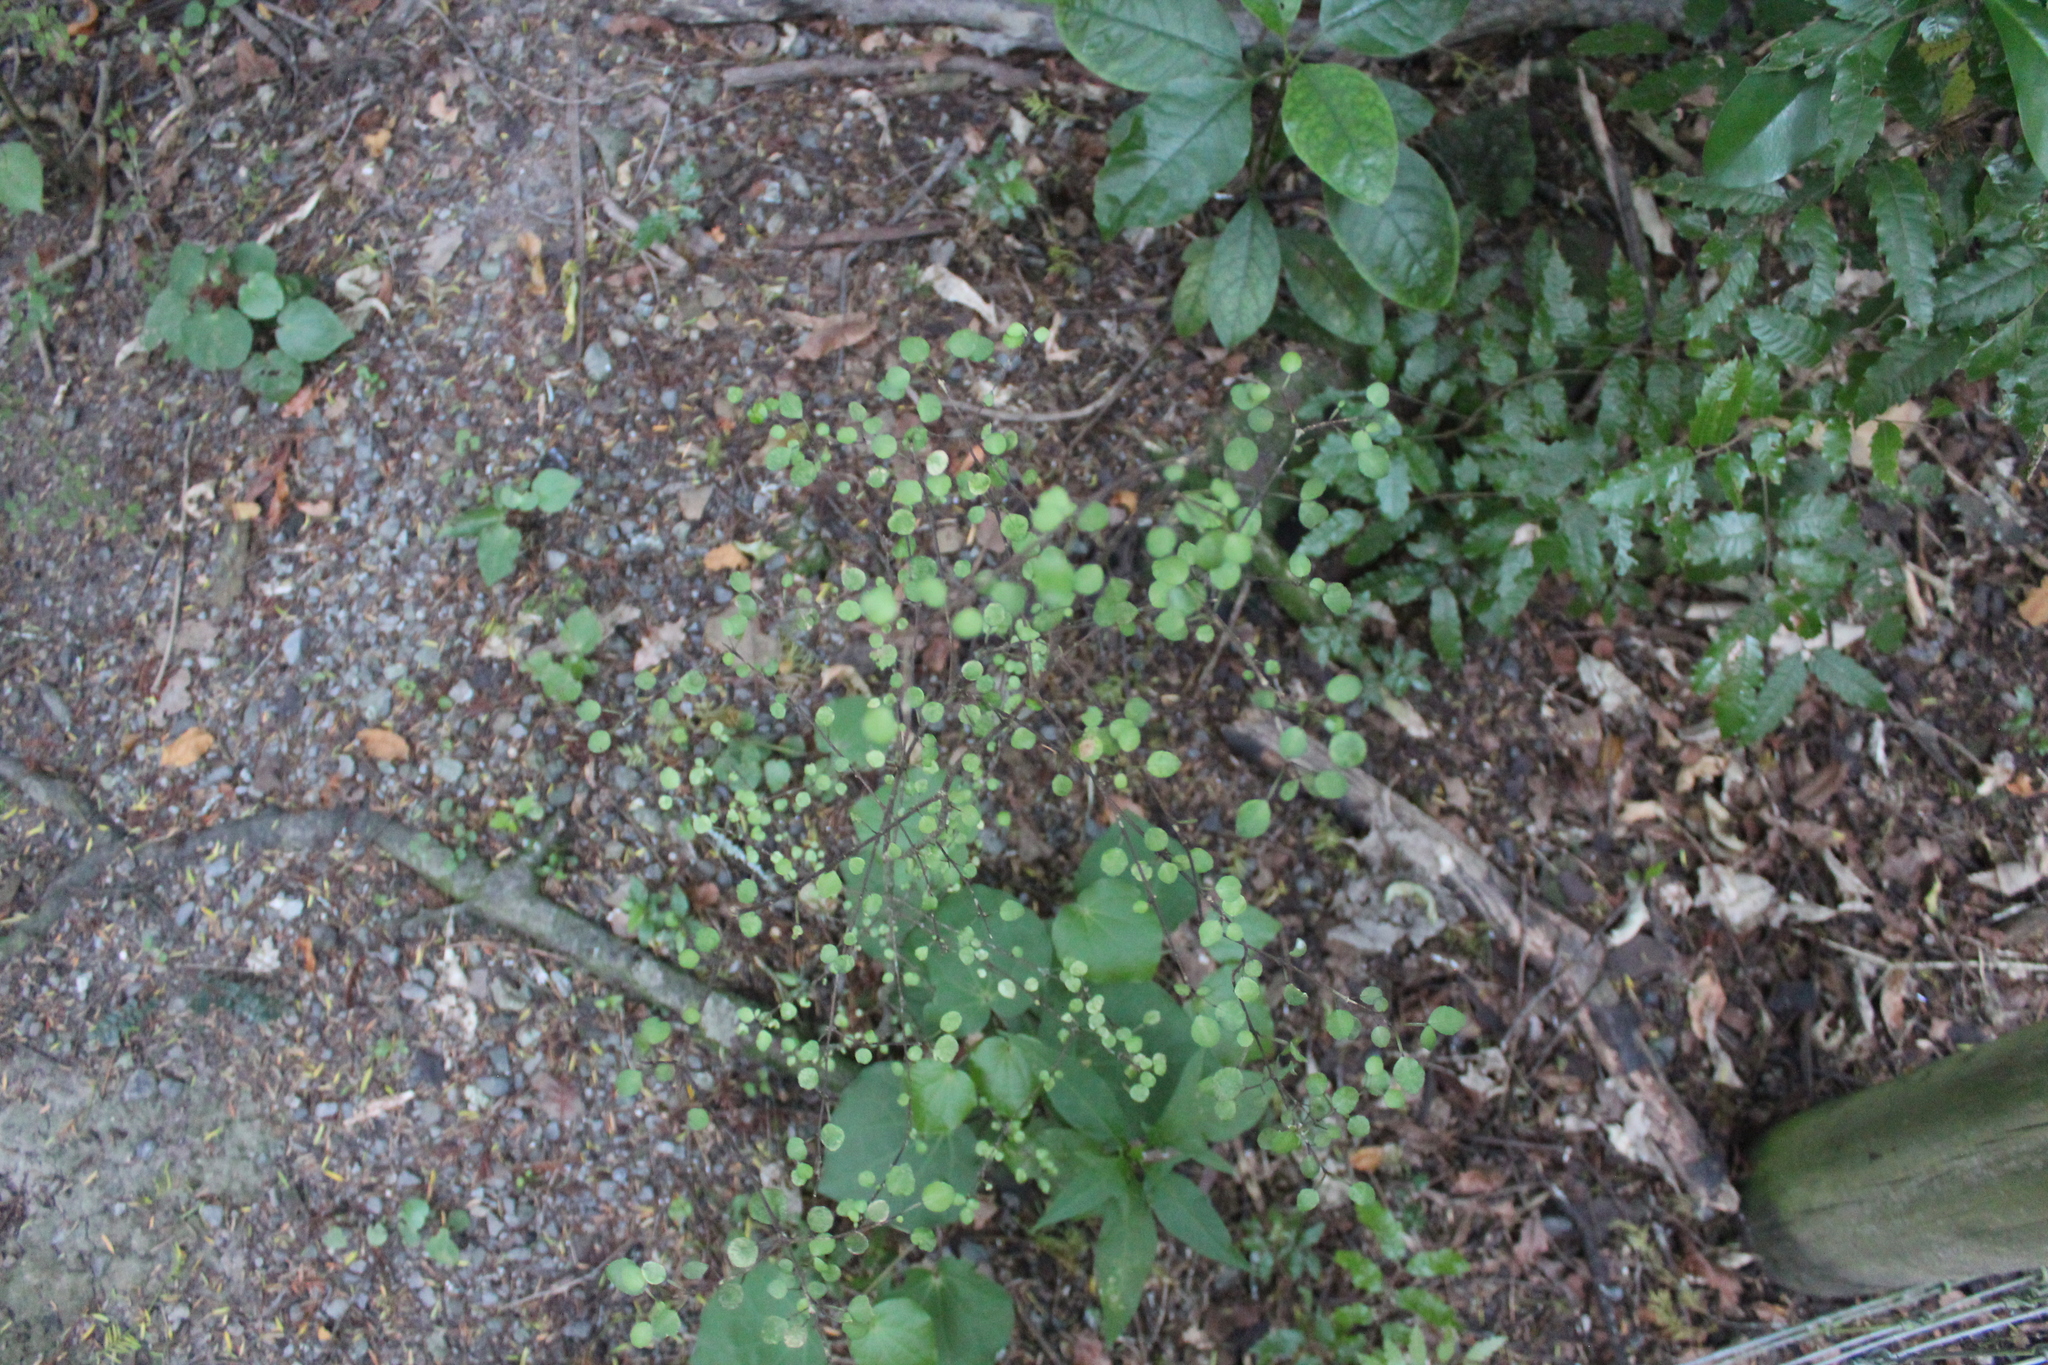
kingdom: Plantae
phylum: Tracheophyta
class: Magnoliopsida
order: Sapindales
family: Rutaceae
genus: Melicope
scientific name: Melicope simplex
